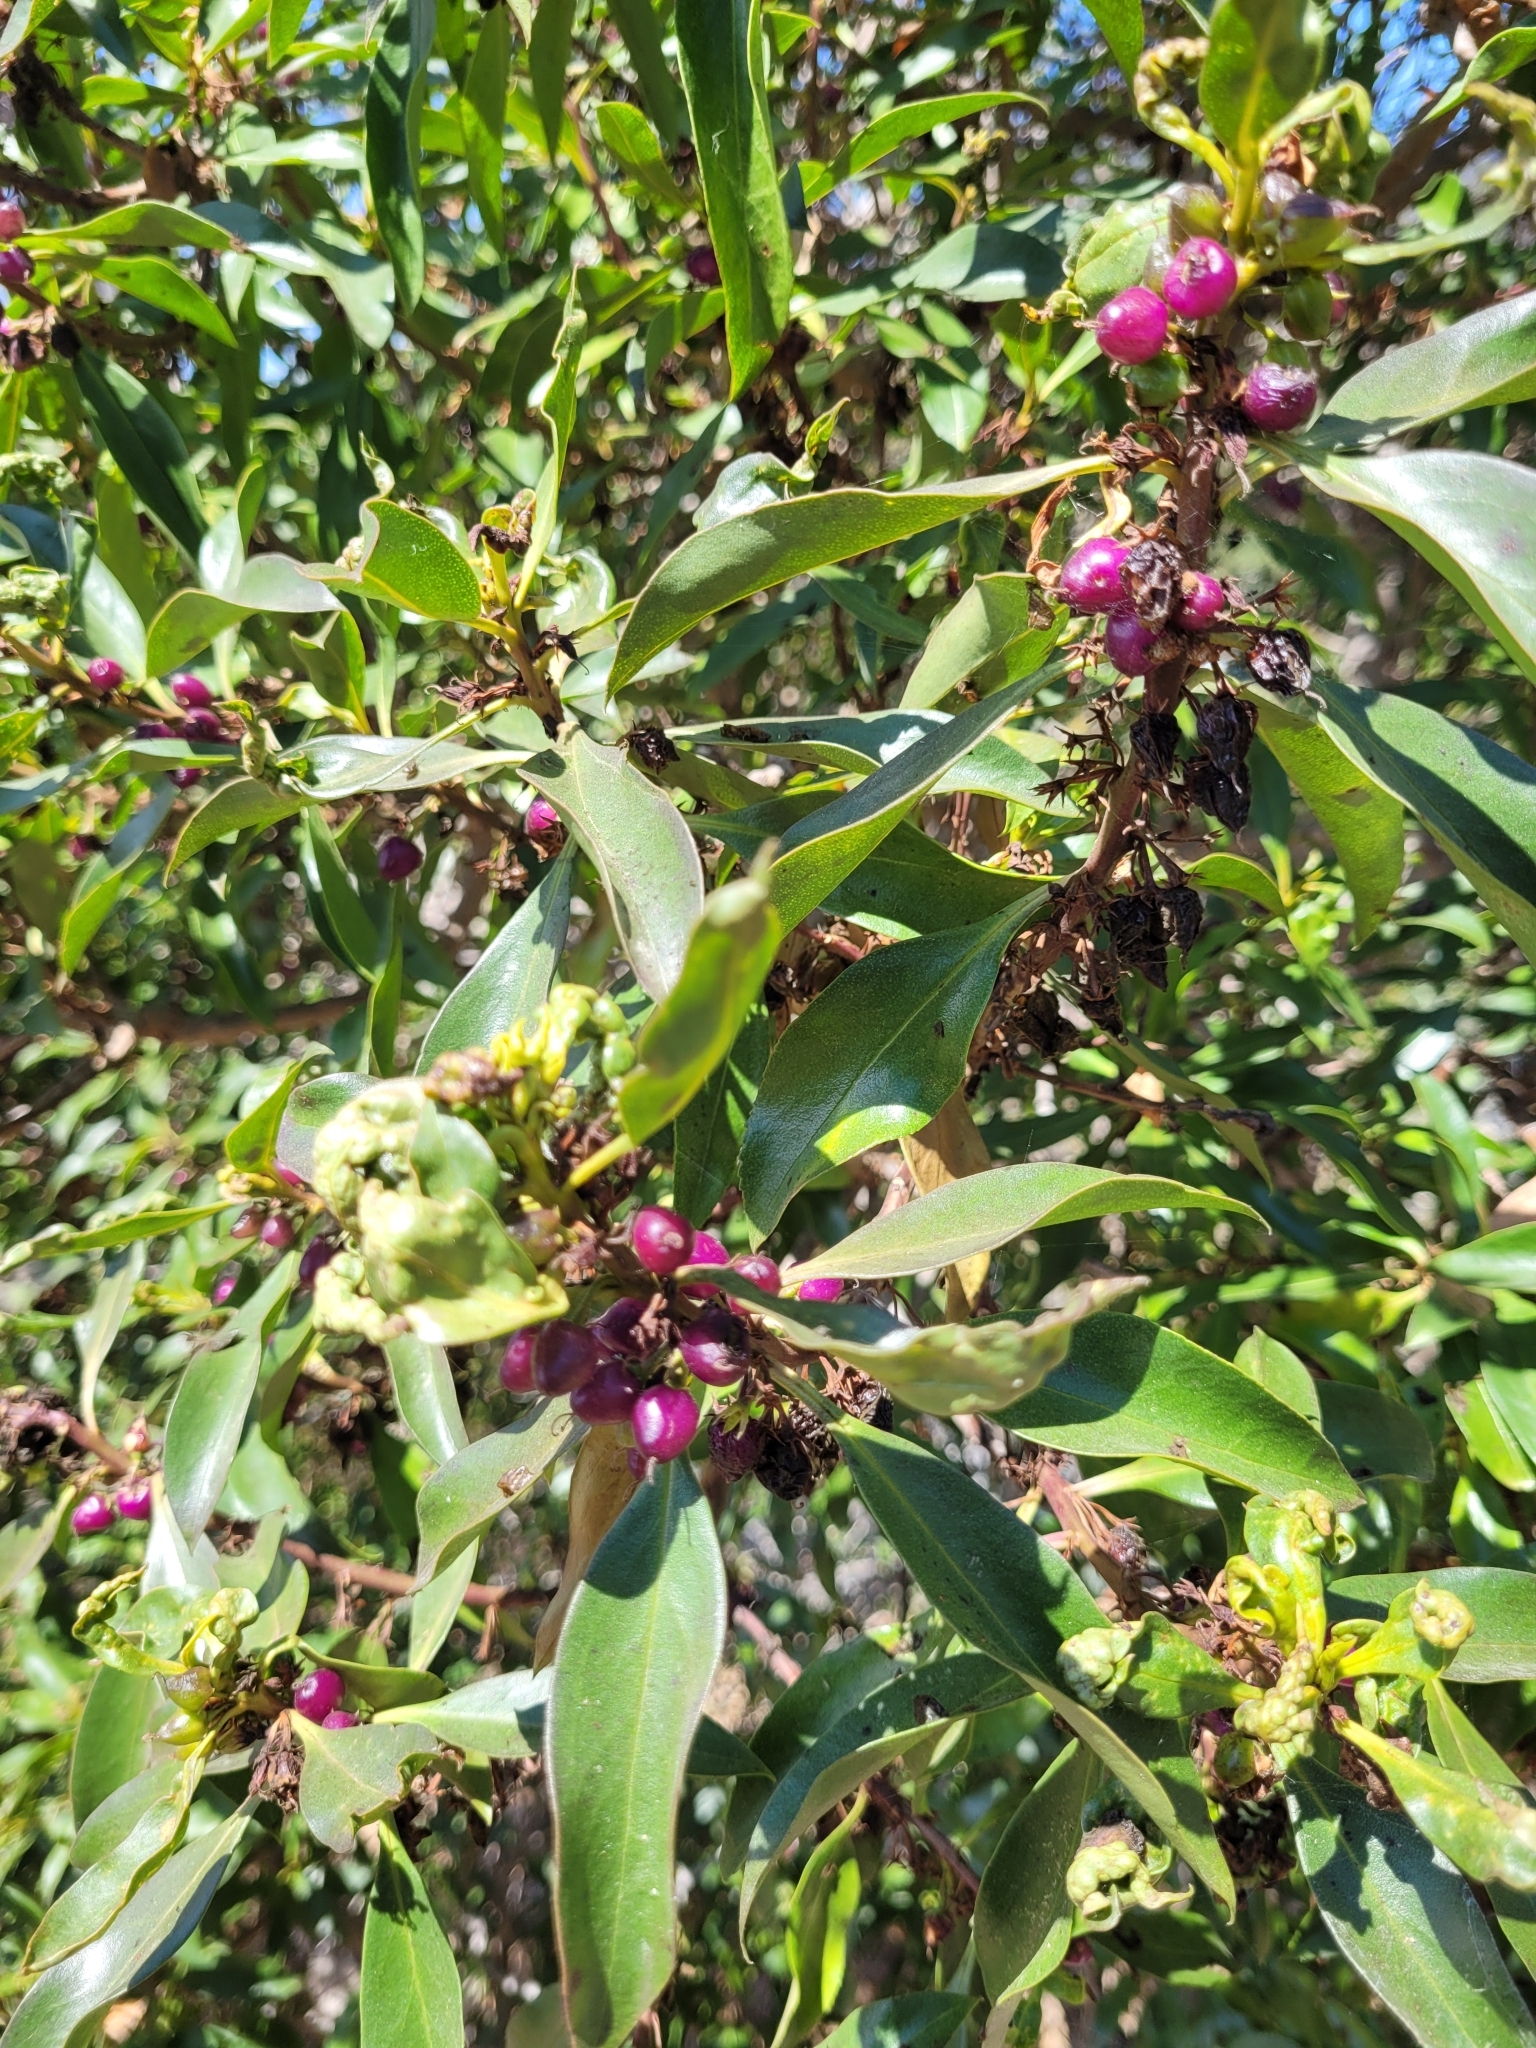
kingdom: Plantae
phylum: Tracheophyta
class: Magnoliopsida
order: Lamiales
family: Scrophulariaceae
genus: Myoporum
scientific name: Myoporum laetum
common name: Ngaio tree
